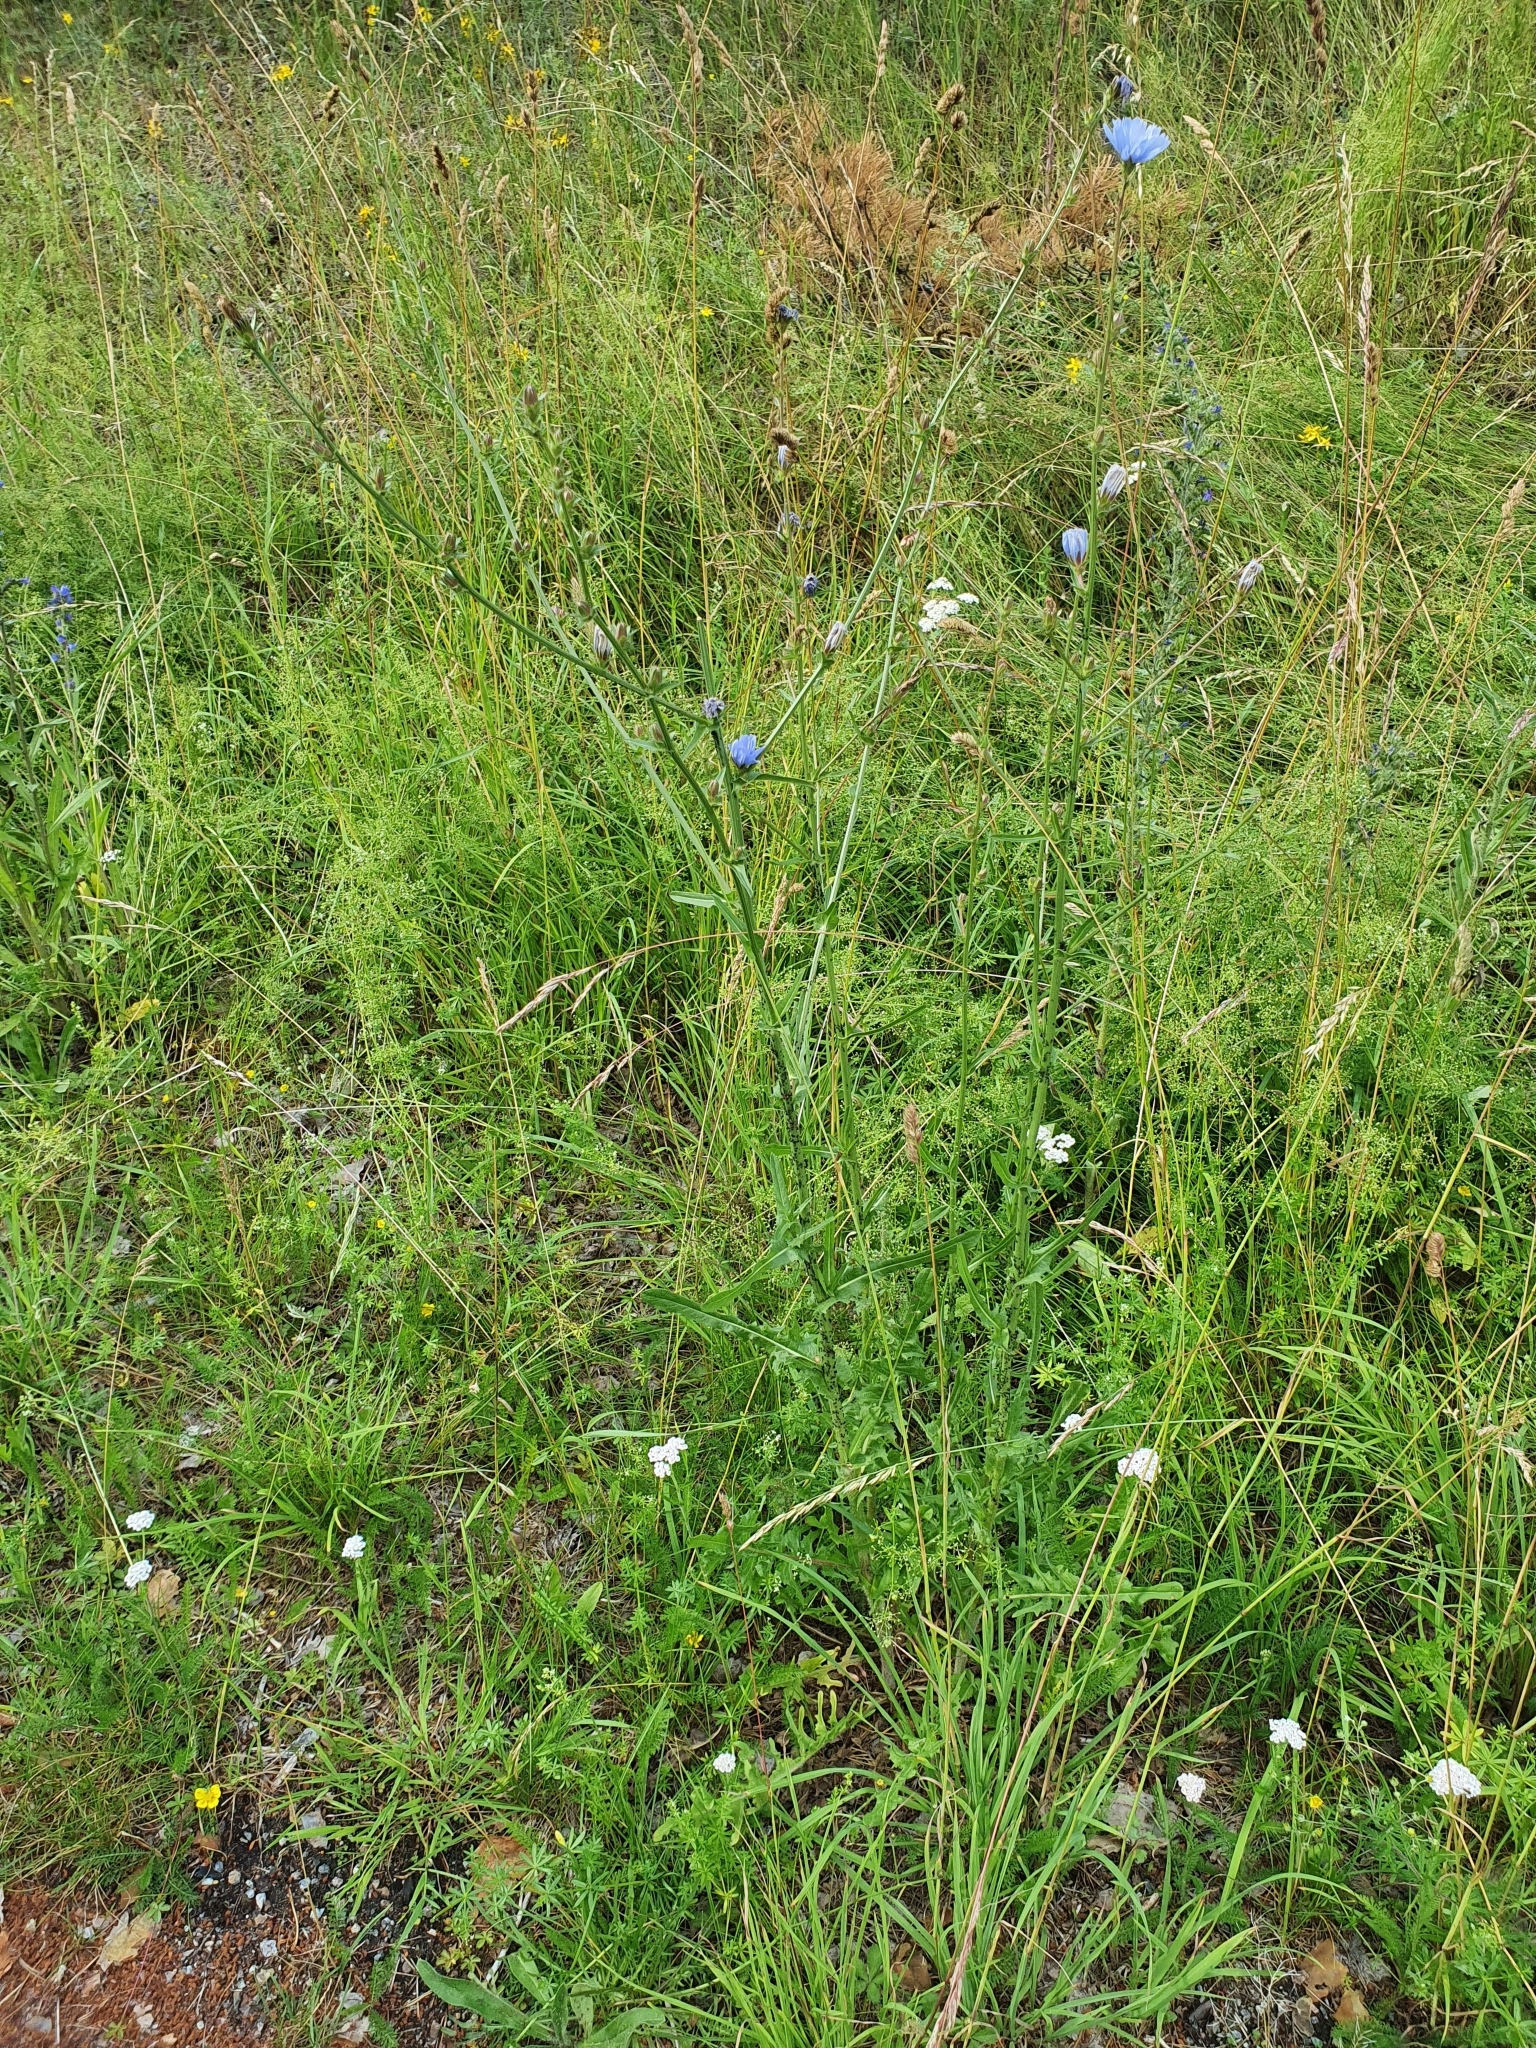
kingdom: Plantae
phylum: Tracheophyta
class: Magnoliopsida
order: Asterales
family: Asteraceae
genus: Cichorium
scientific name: Cichorium intybus
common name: Chicory
